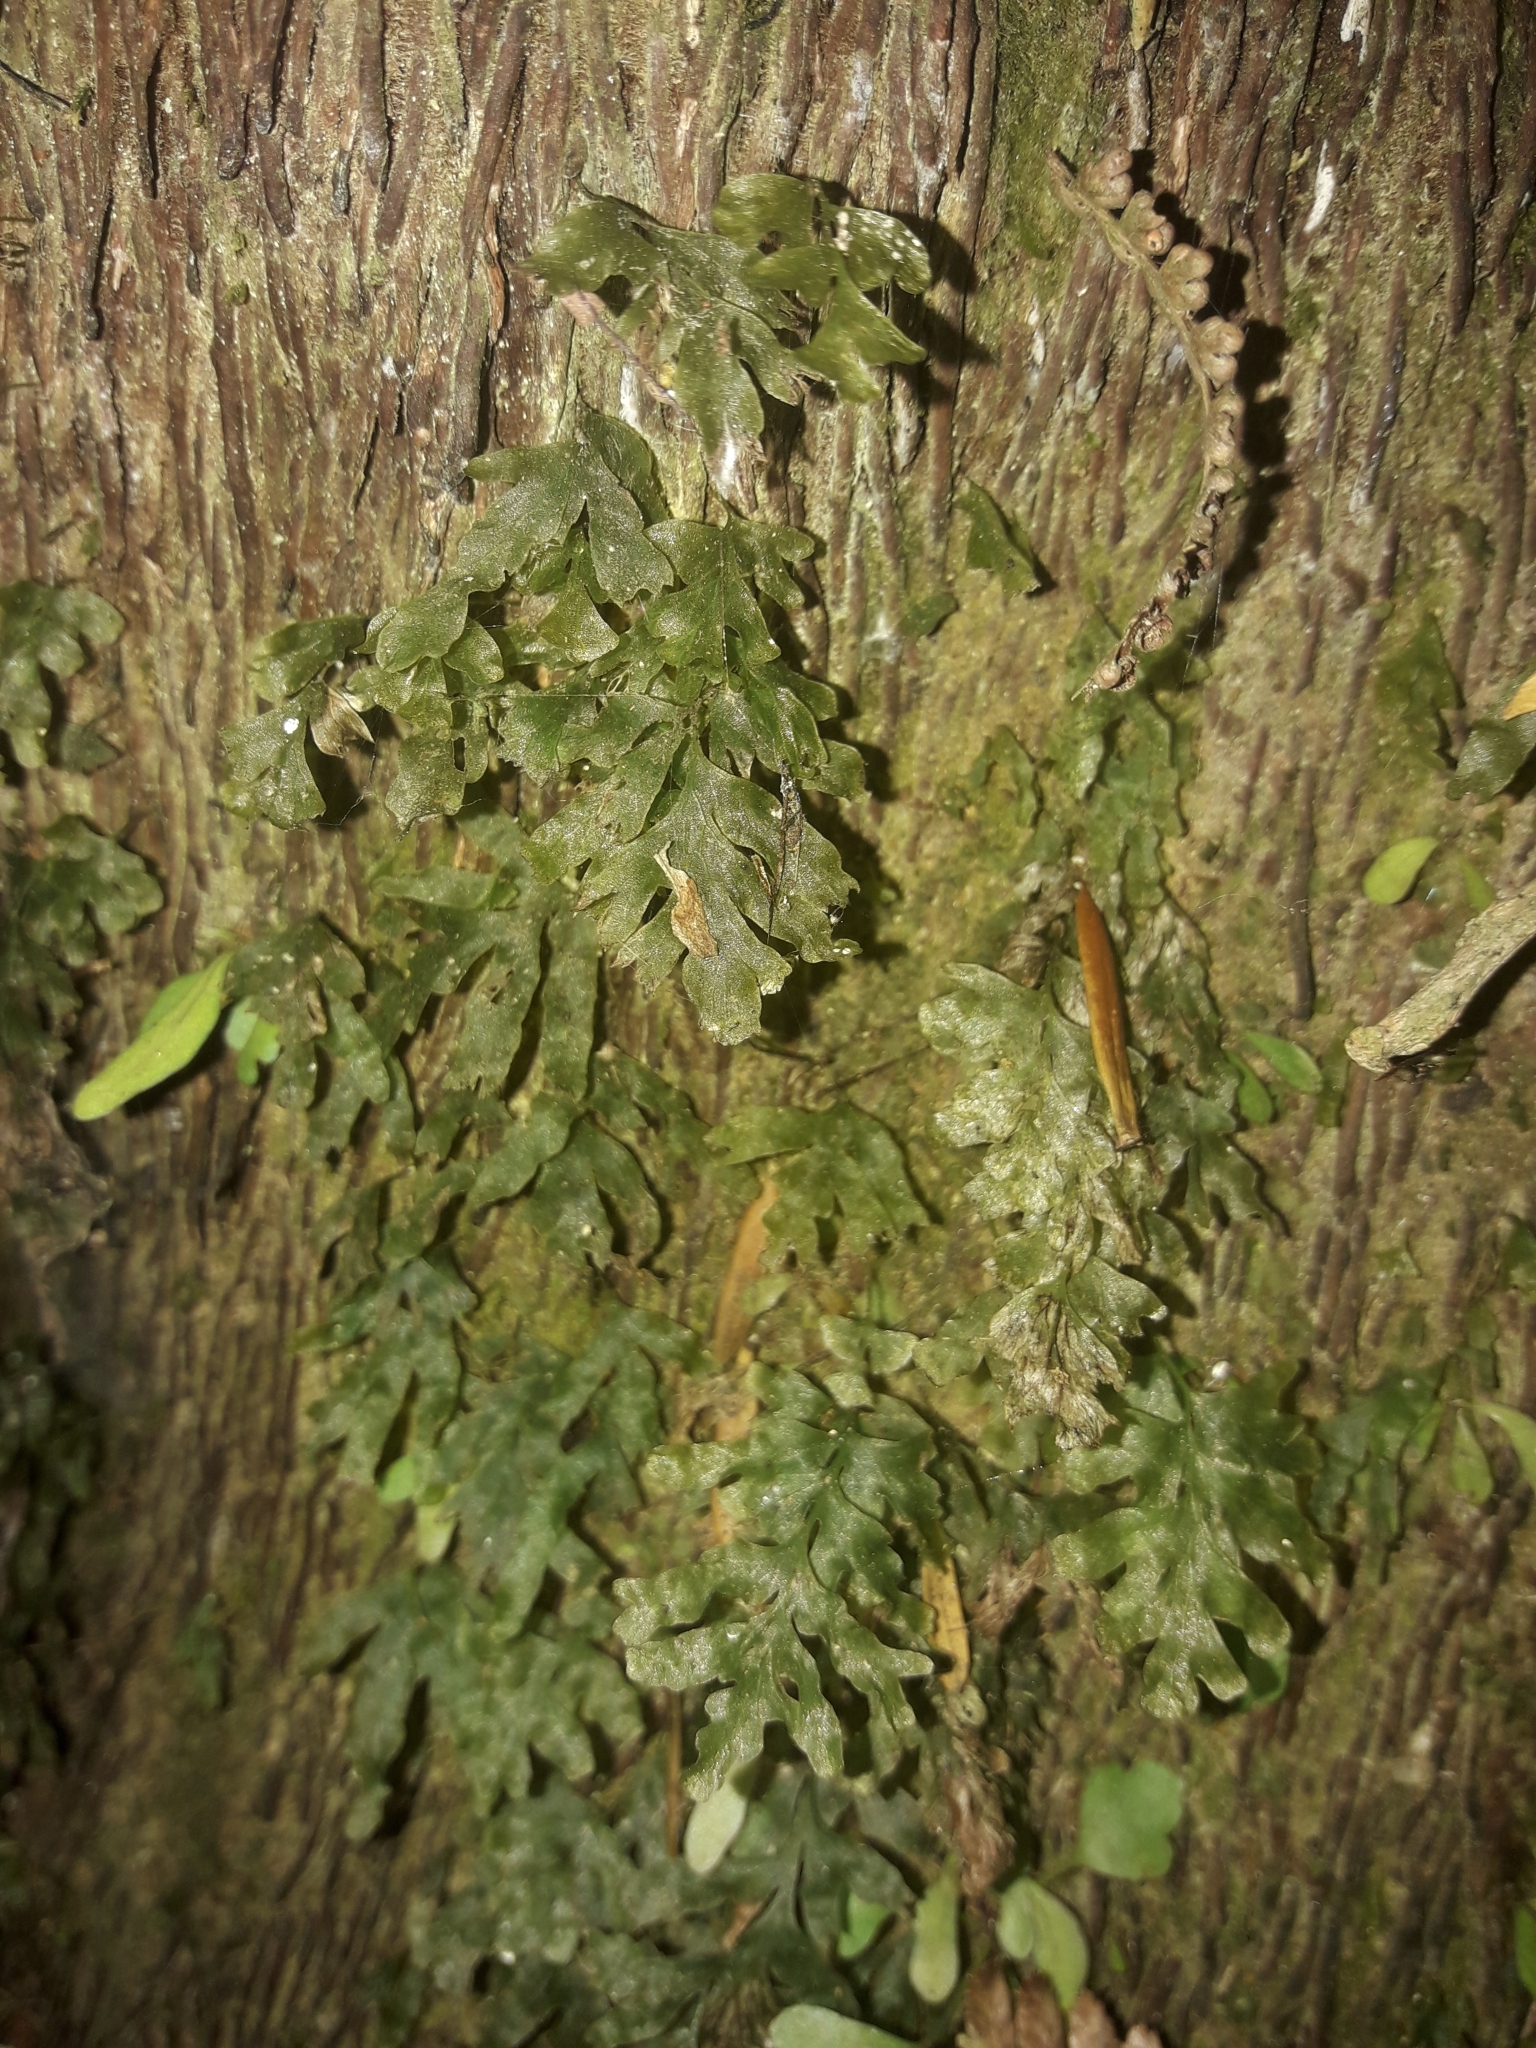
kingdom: Plantae
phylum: Tracheophyta
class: Polypodiopsida
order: Hymenophyllales
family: Hymenophyllaceae
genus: Polyphlebium
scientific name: Polyphlebium venosum
